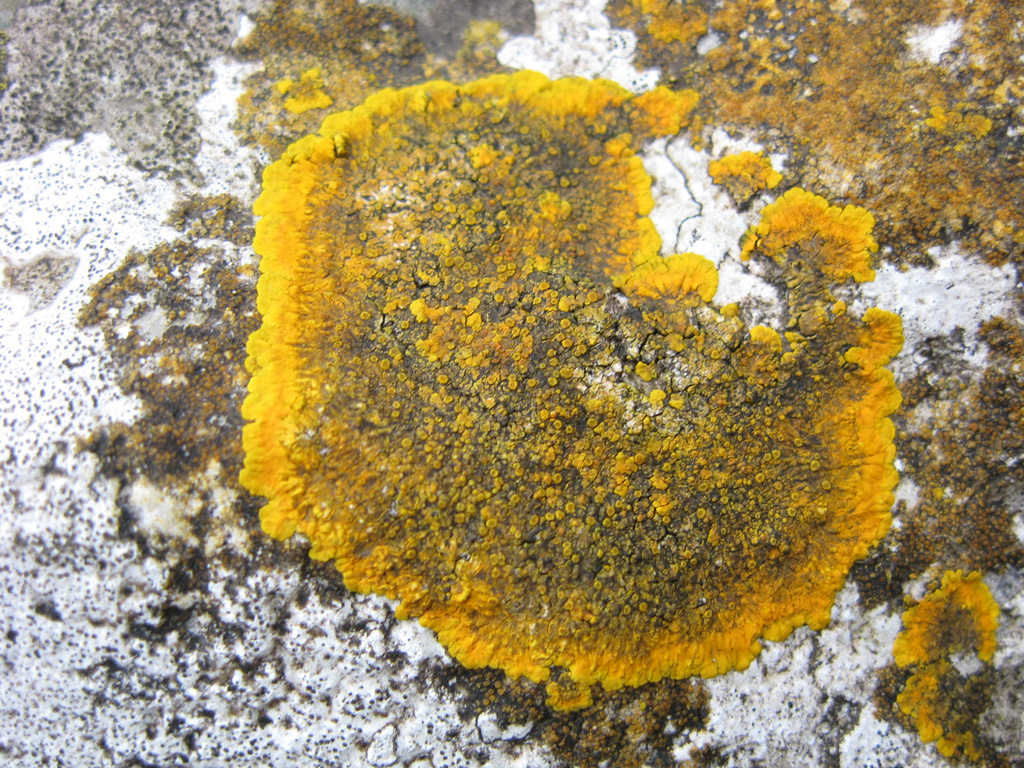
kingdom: Fungi
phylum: Ascomycota
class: Lecanoromycetes
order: Teloschistales
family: Teloschistaceae
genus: Variospora
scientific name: Variospora aurantia
